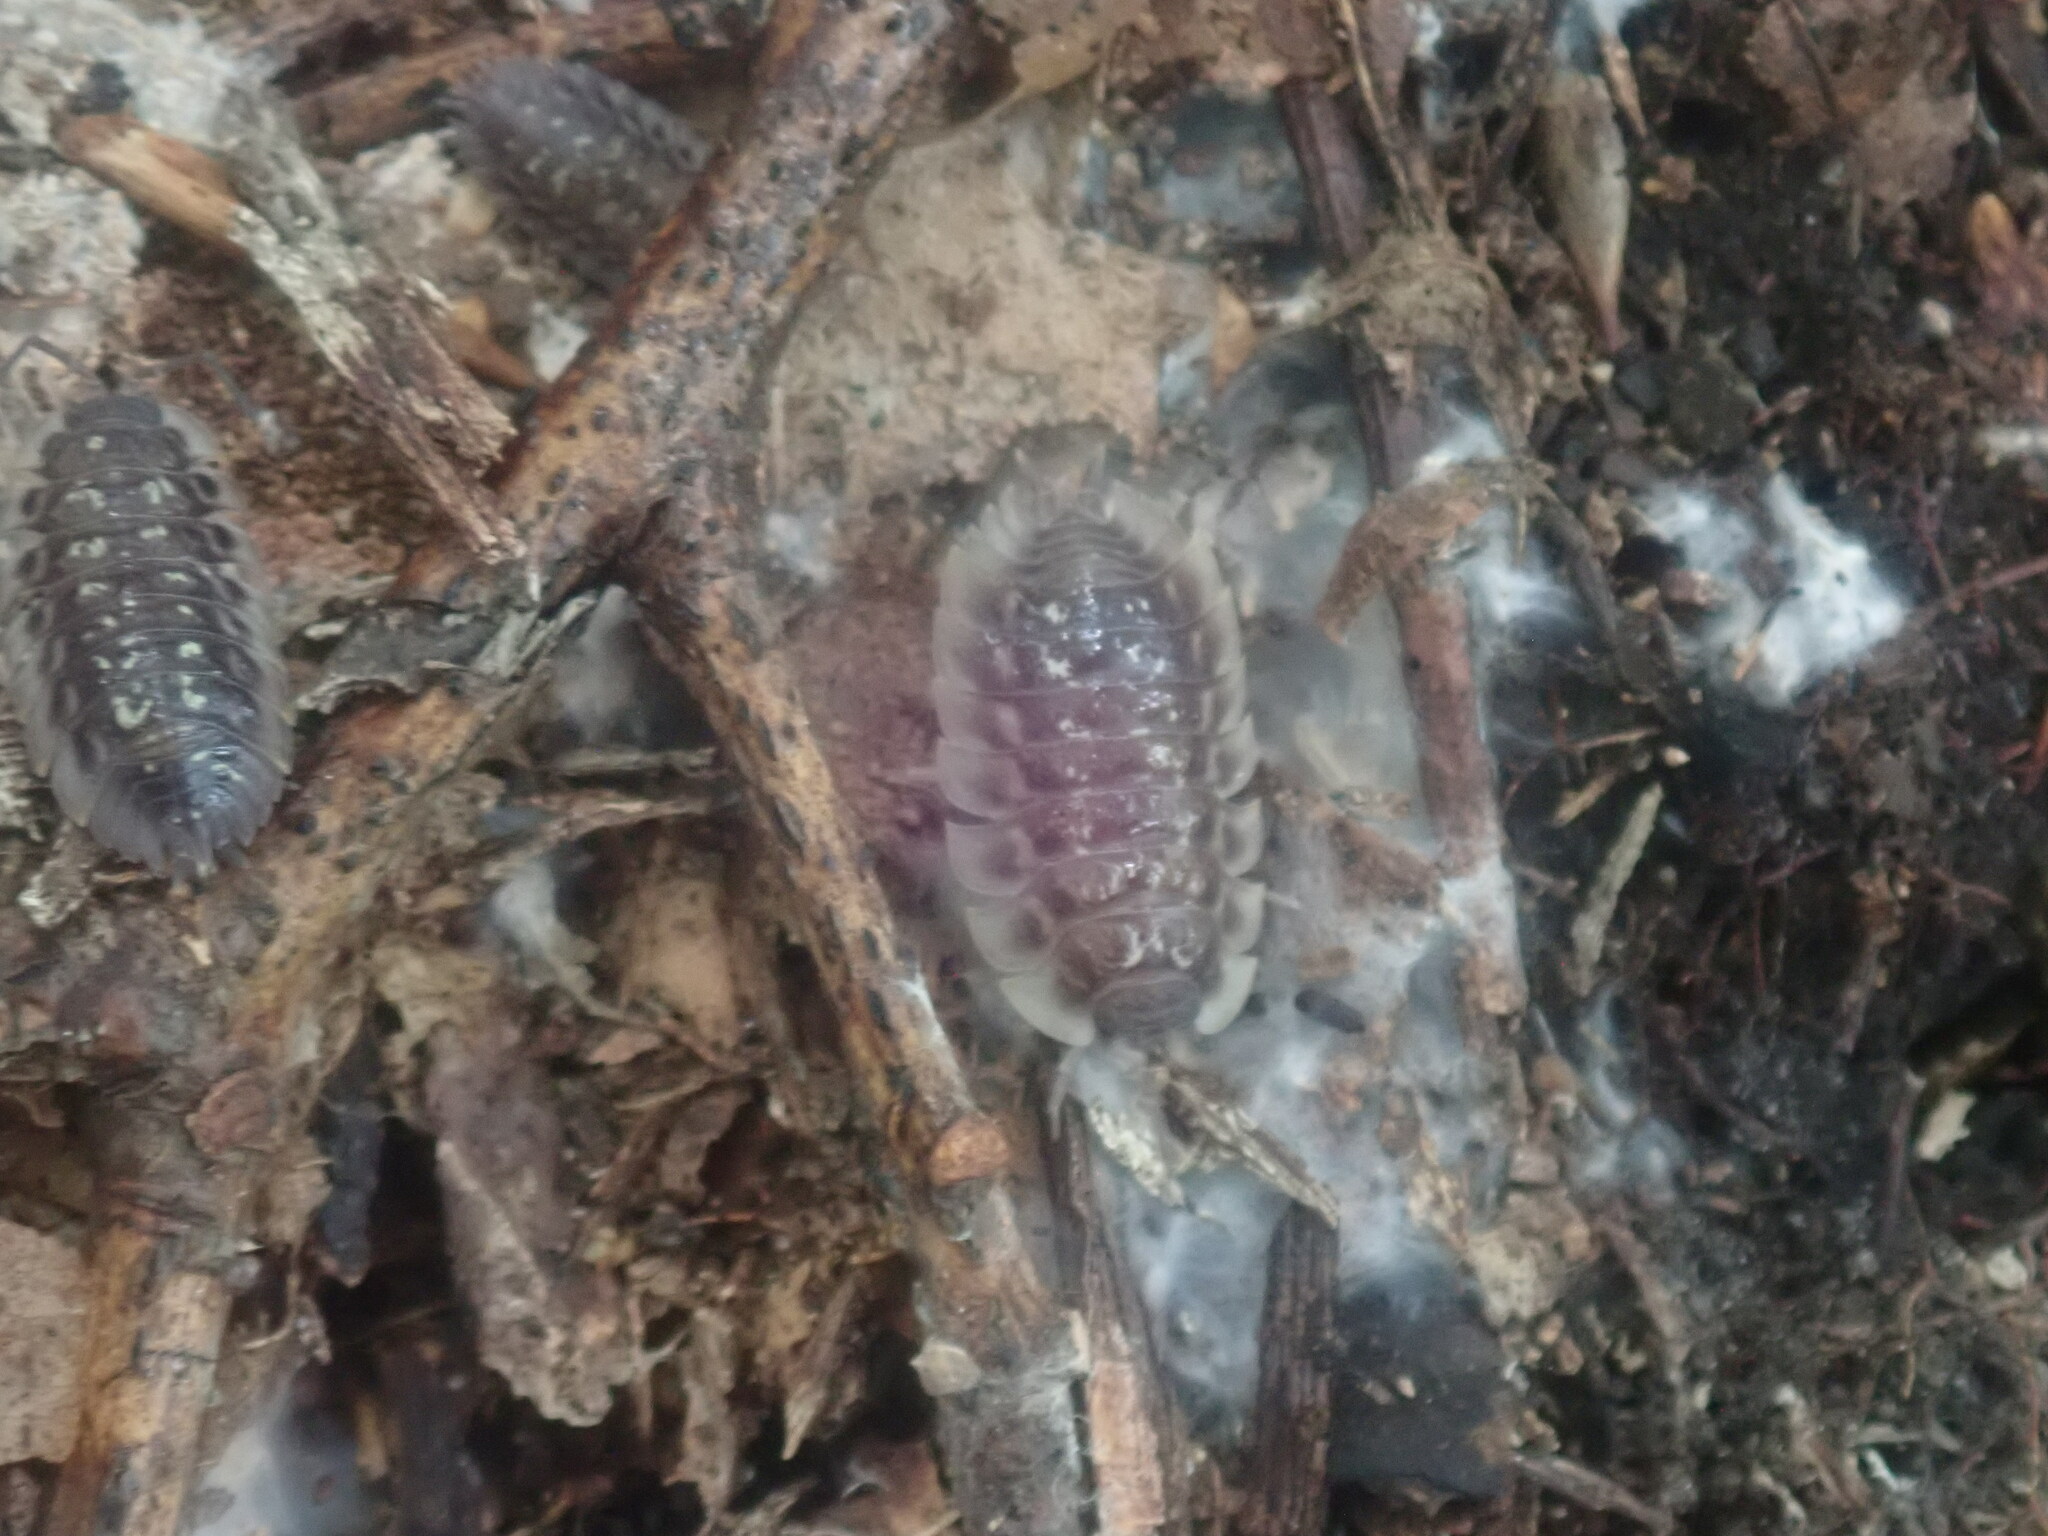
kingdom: Animalia
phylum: Arthropoda
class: Malacostraca
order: Isopoda
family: Oniscidae
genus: Oniscus
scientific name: Oniscus asellus
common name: Common shiny woodlouse
